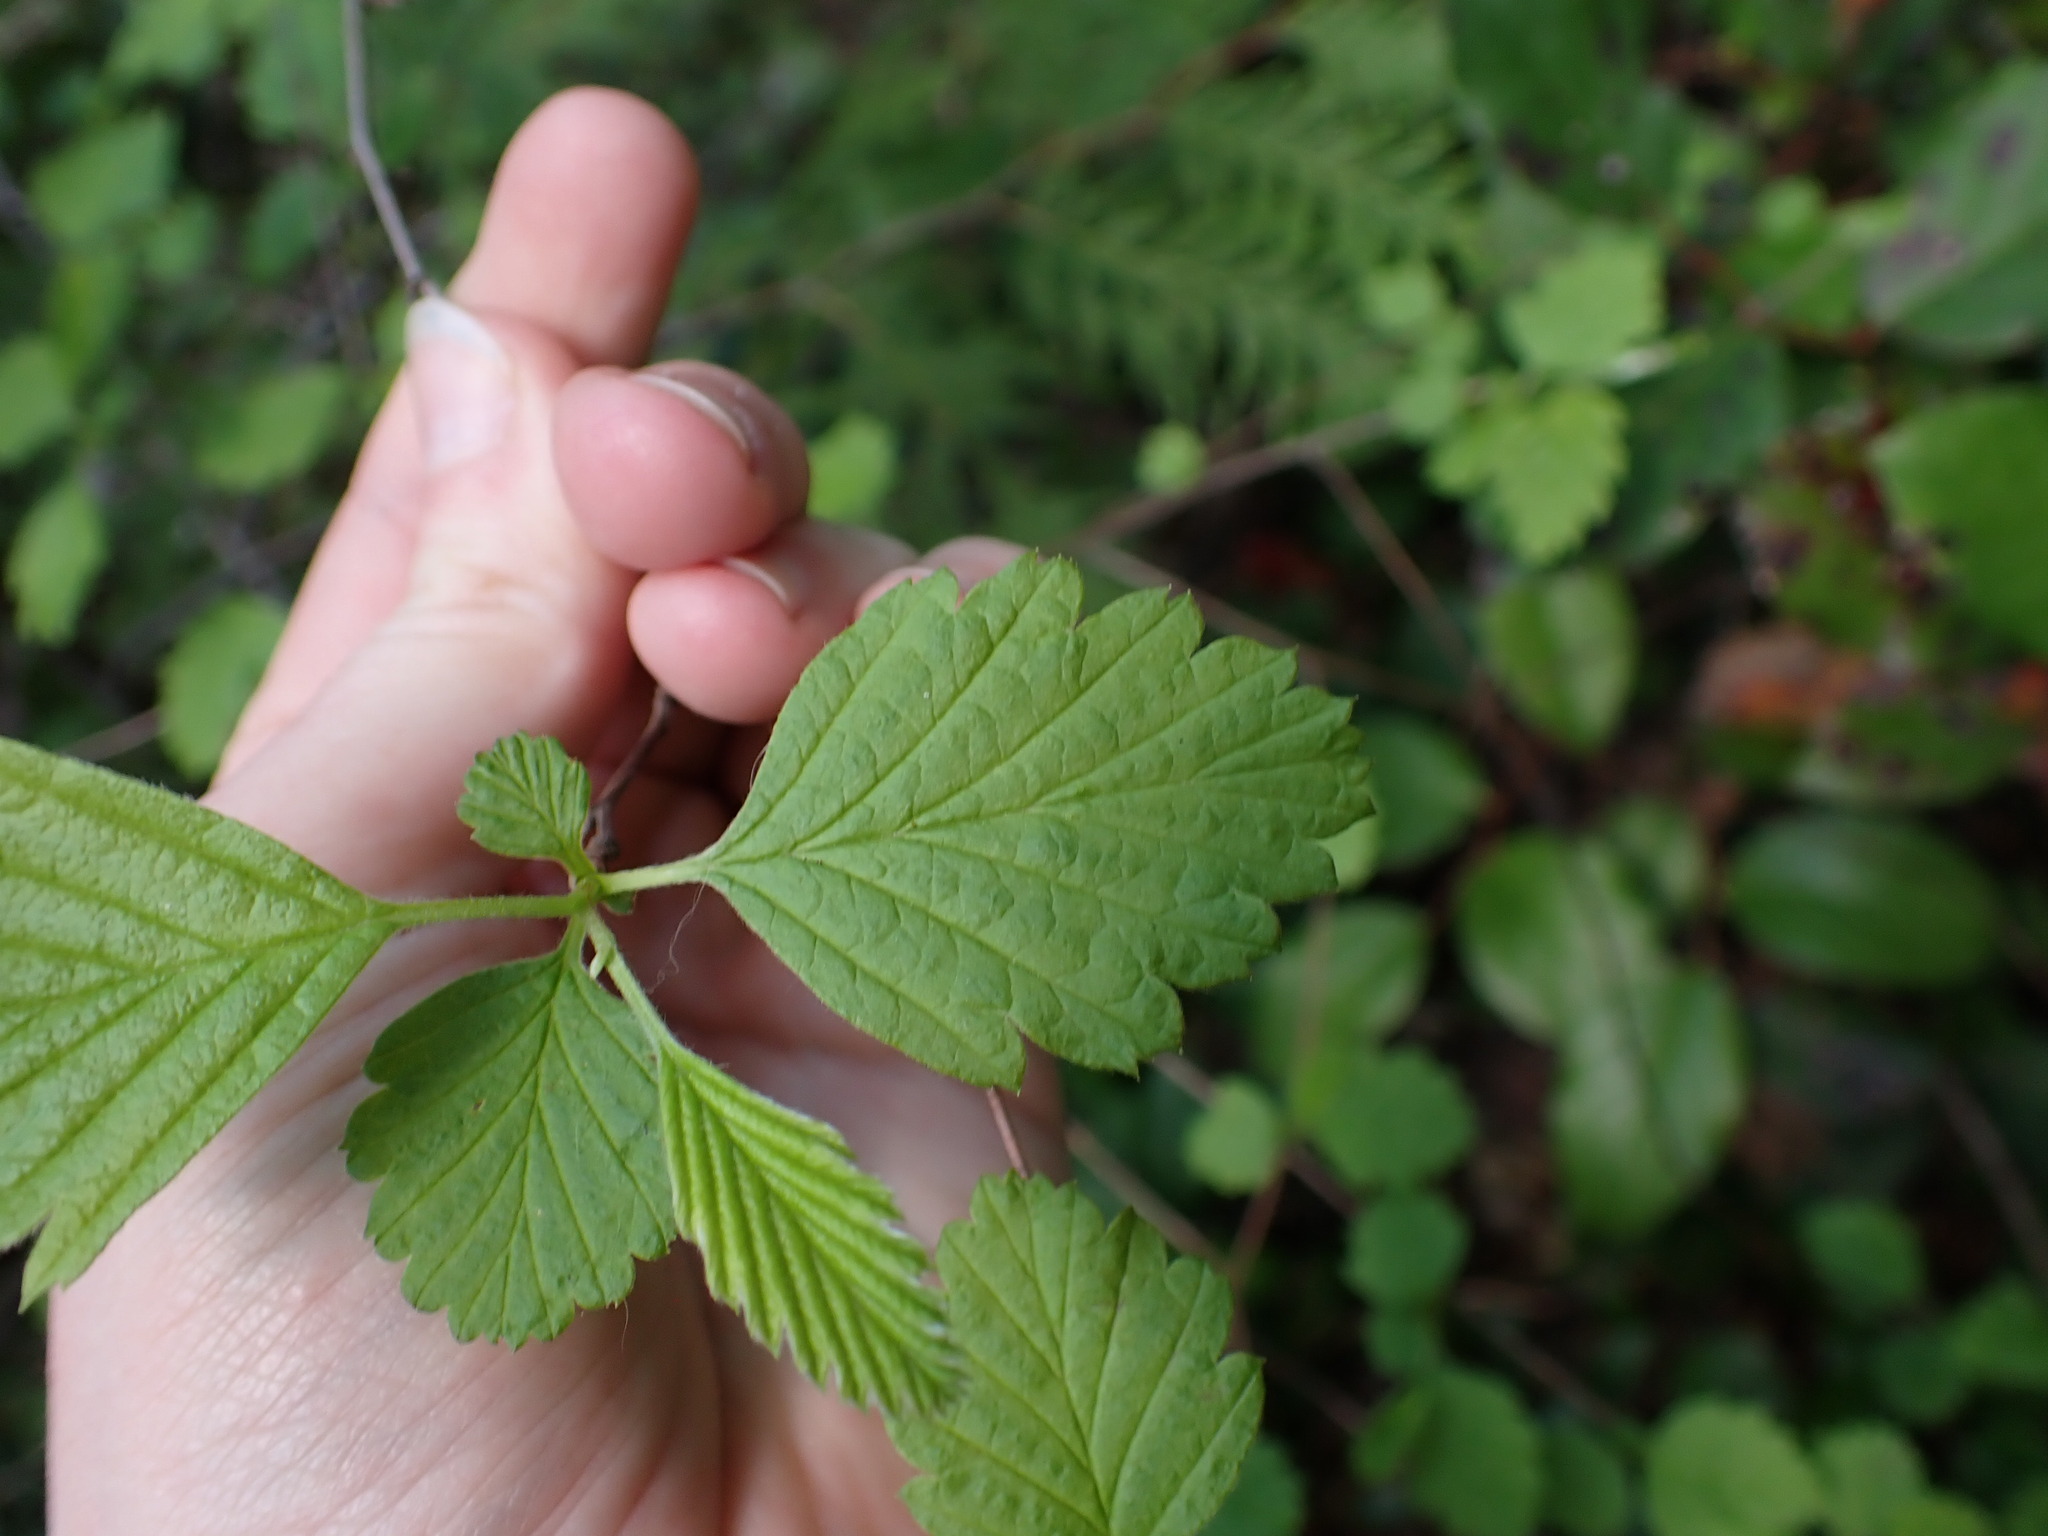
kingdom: Plantae
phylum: Tracheophyta
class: Magnoliopsida
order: Rosales
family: Rosaceae
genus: Holodiscus
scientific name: Holodiscus discolor
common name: Oceanspray
